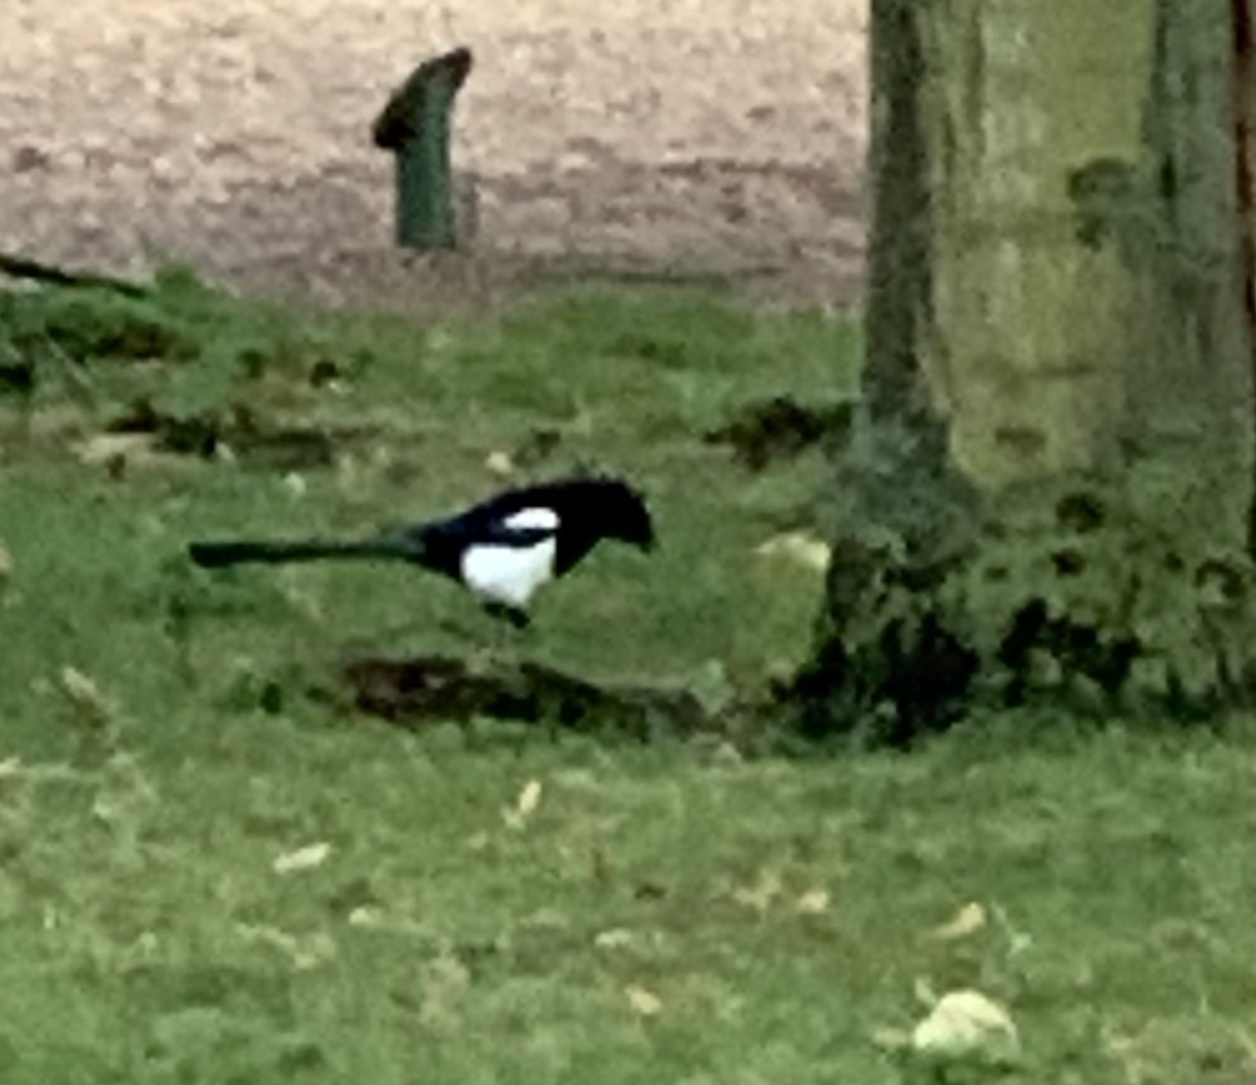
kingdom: Animalia
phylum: Chordata
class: Aves
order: Passeriformes
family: Corvidae
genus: Pica
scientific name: Pica pica
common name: Eurasian magpie
